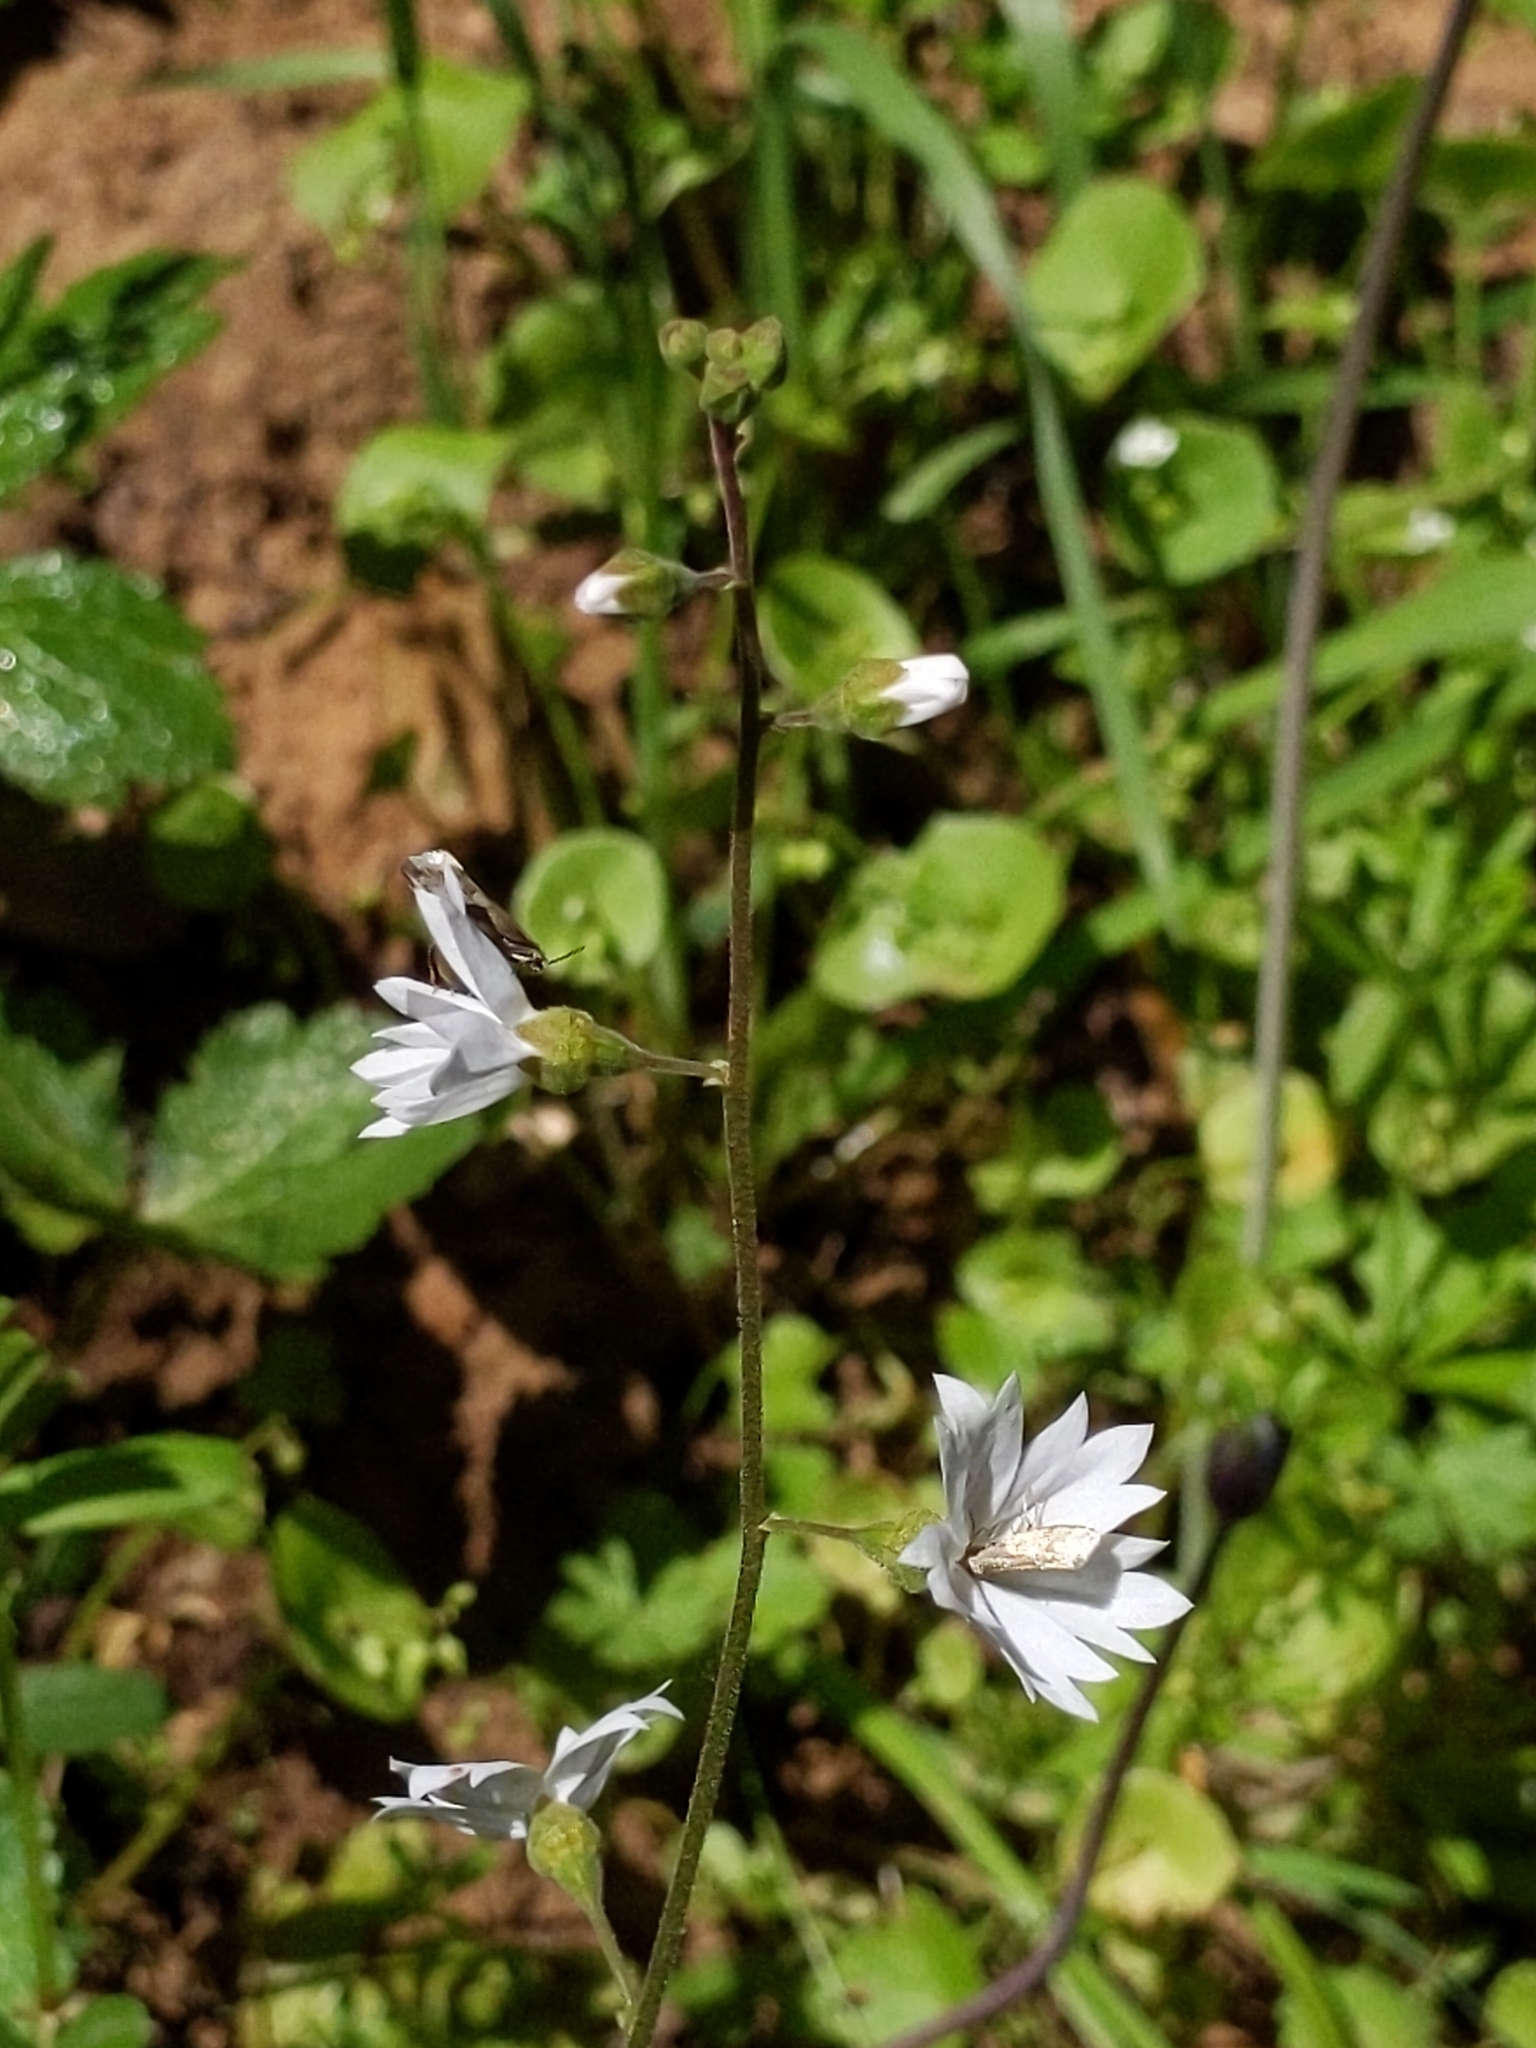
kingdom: Plantae
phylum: Tracheophyta
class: Magnoliopsida
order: Saxifragales
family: Saxifragaceae
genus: Lithophragma
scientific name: Lithophragma affine
